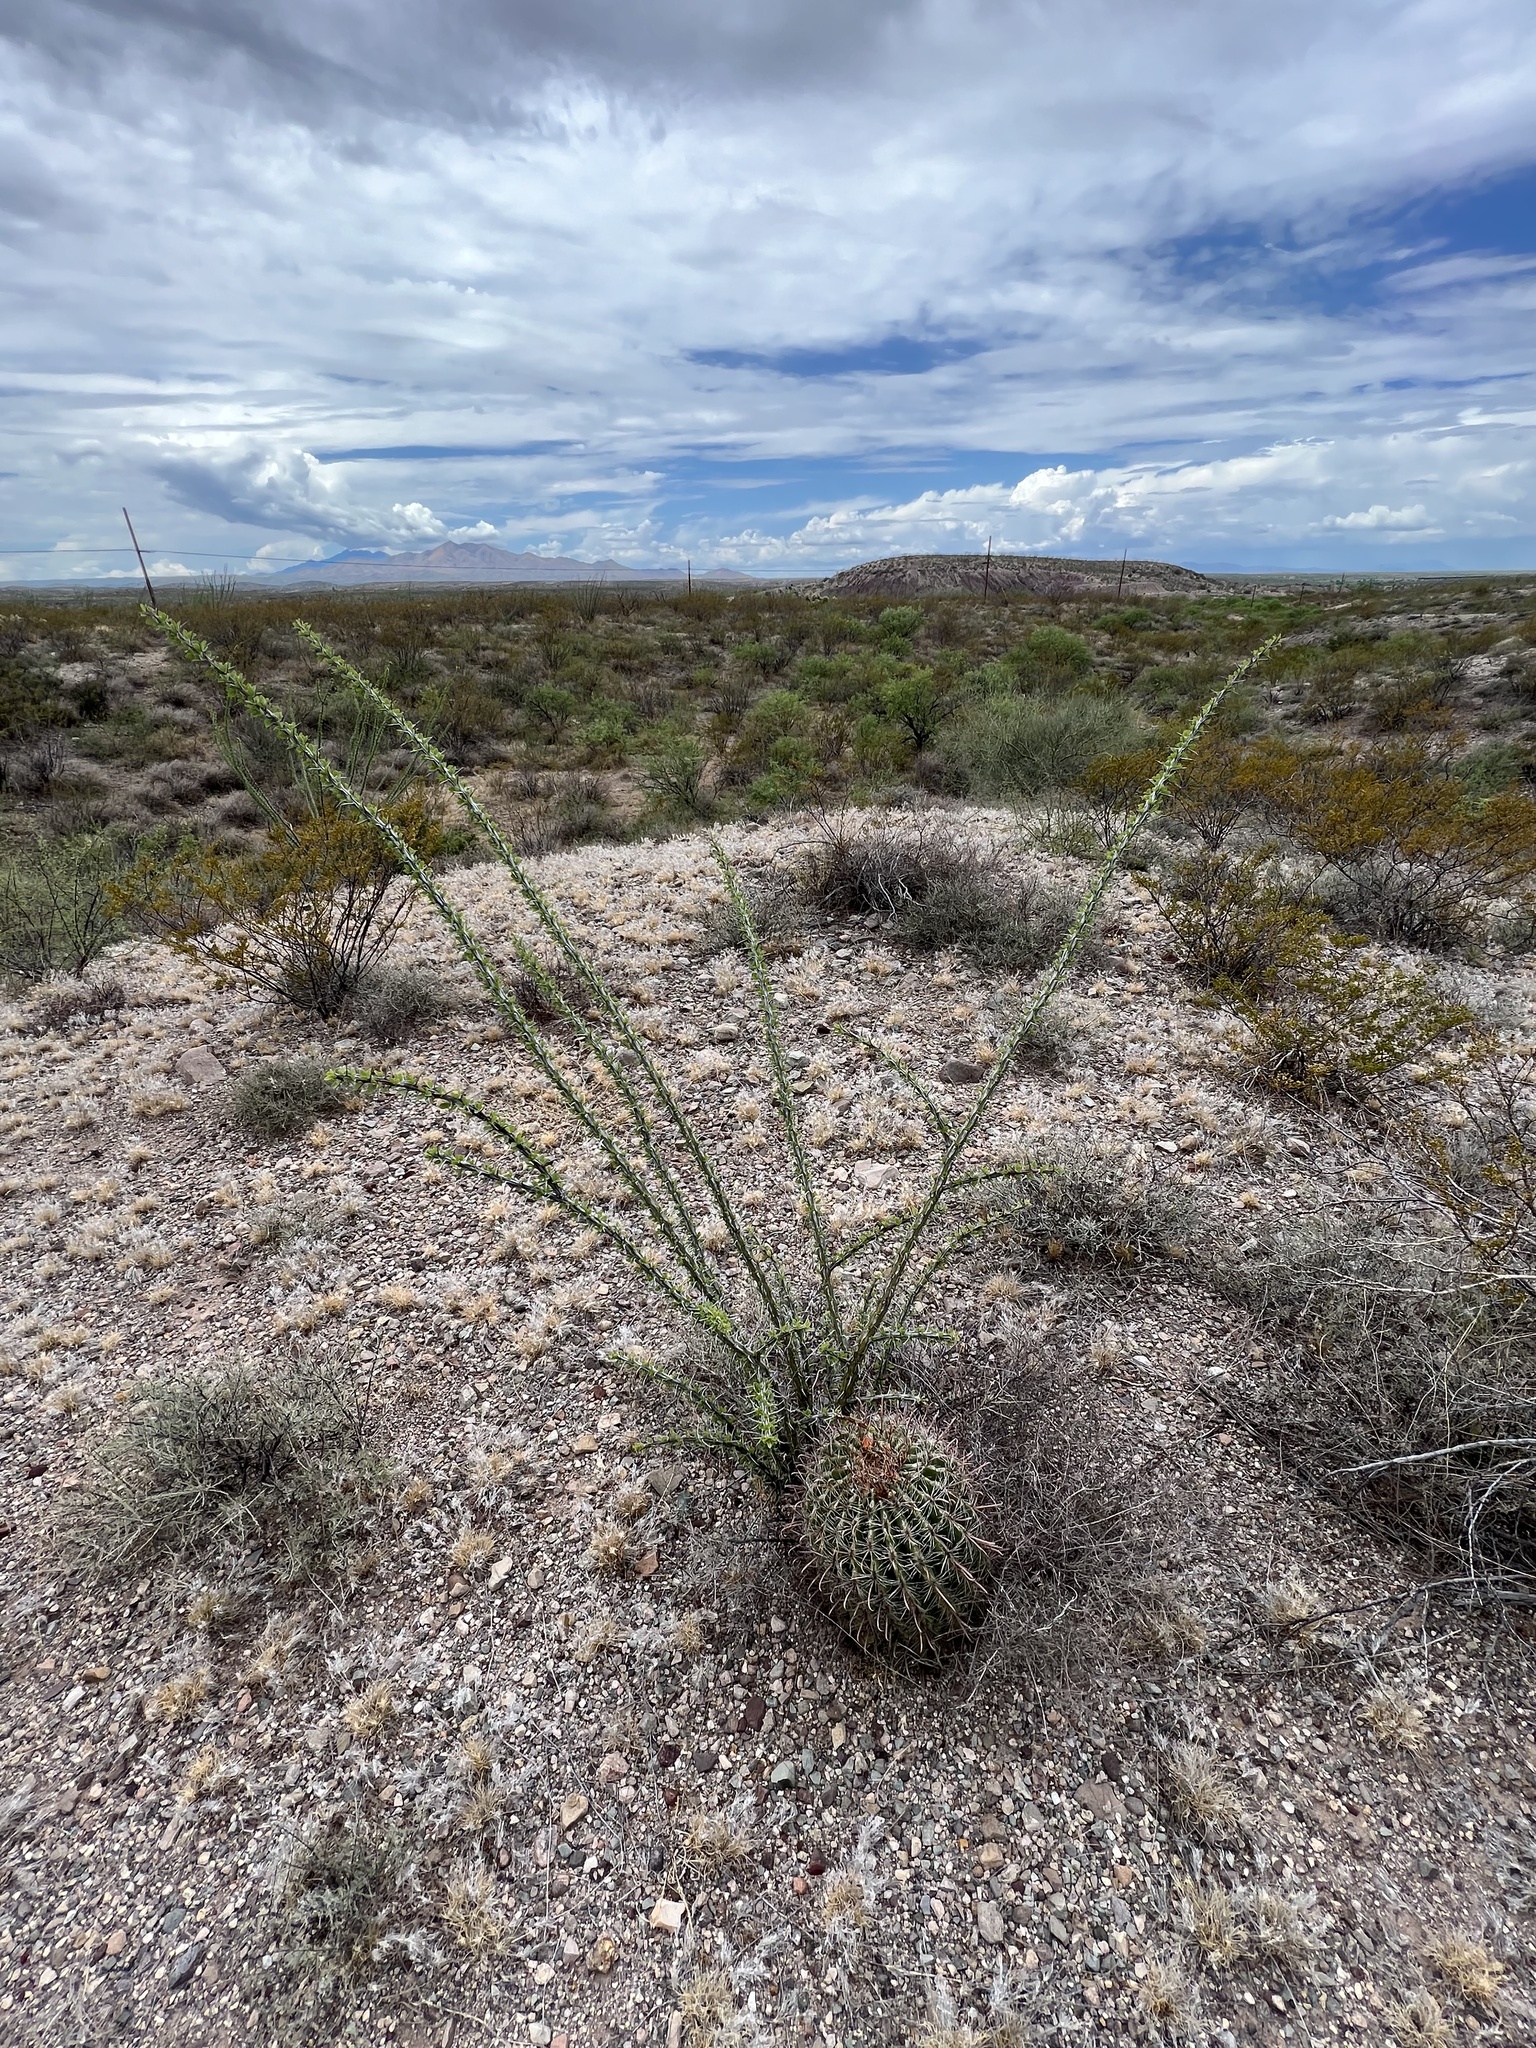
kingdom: Plantae
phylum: Tracheophyta
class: Magnoliopsida
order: Ericales
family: Fouquieriaceae
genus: Fouquieria
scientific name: Fouquieria splendens
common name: Vine-cactus
